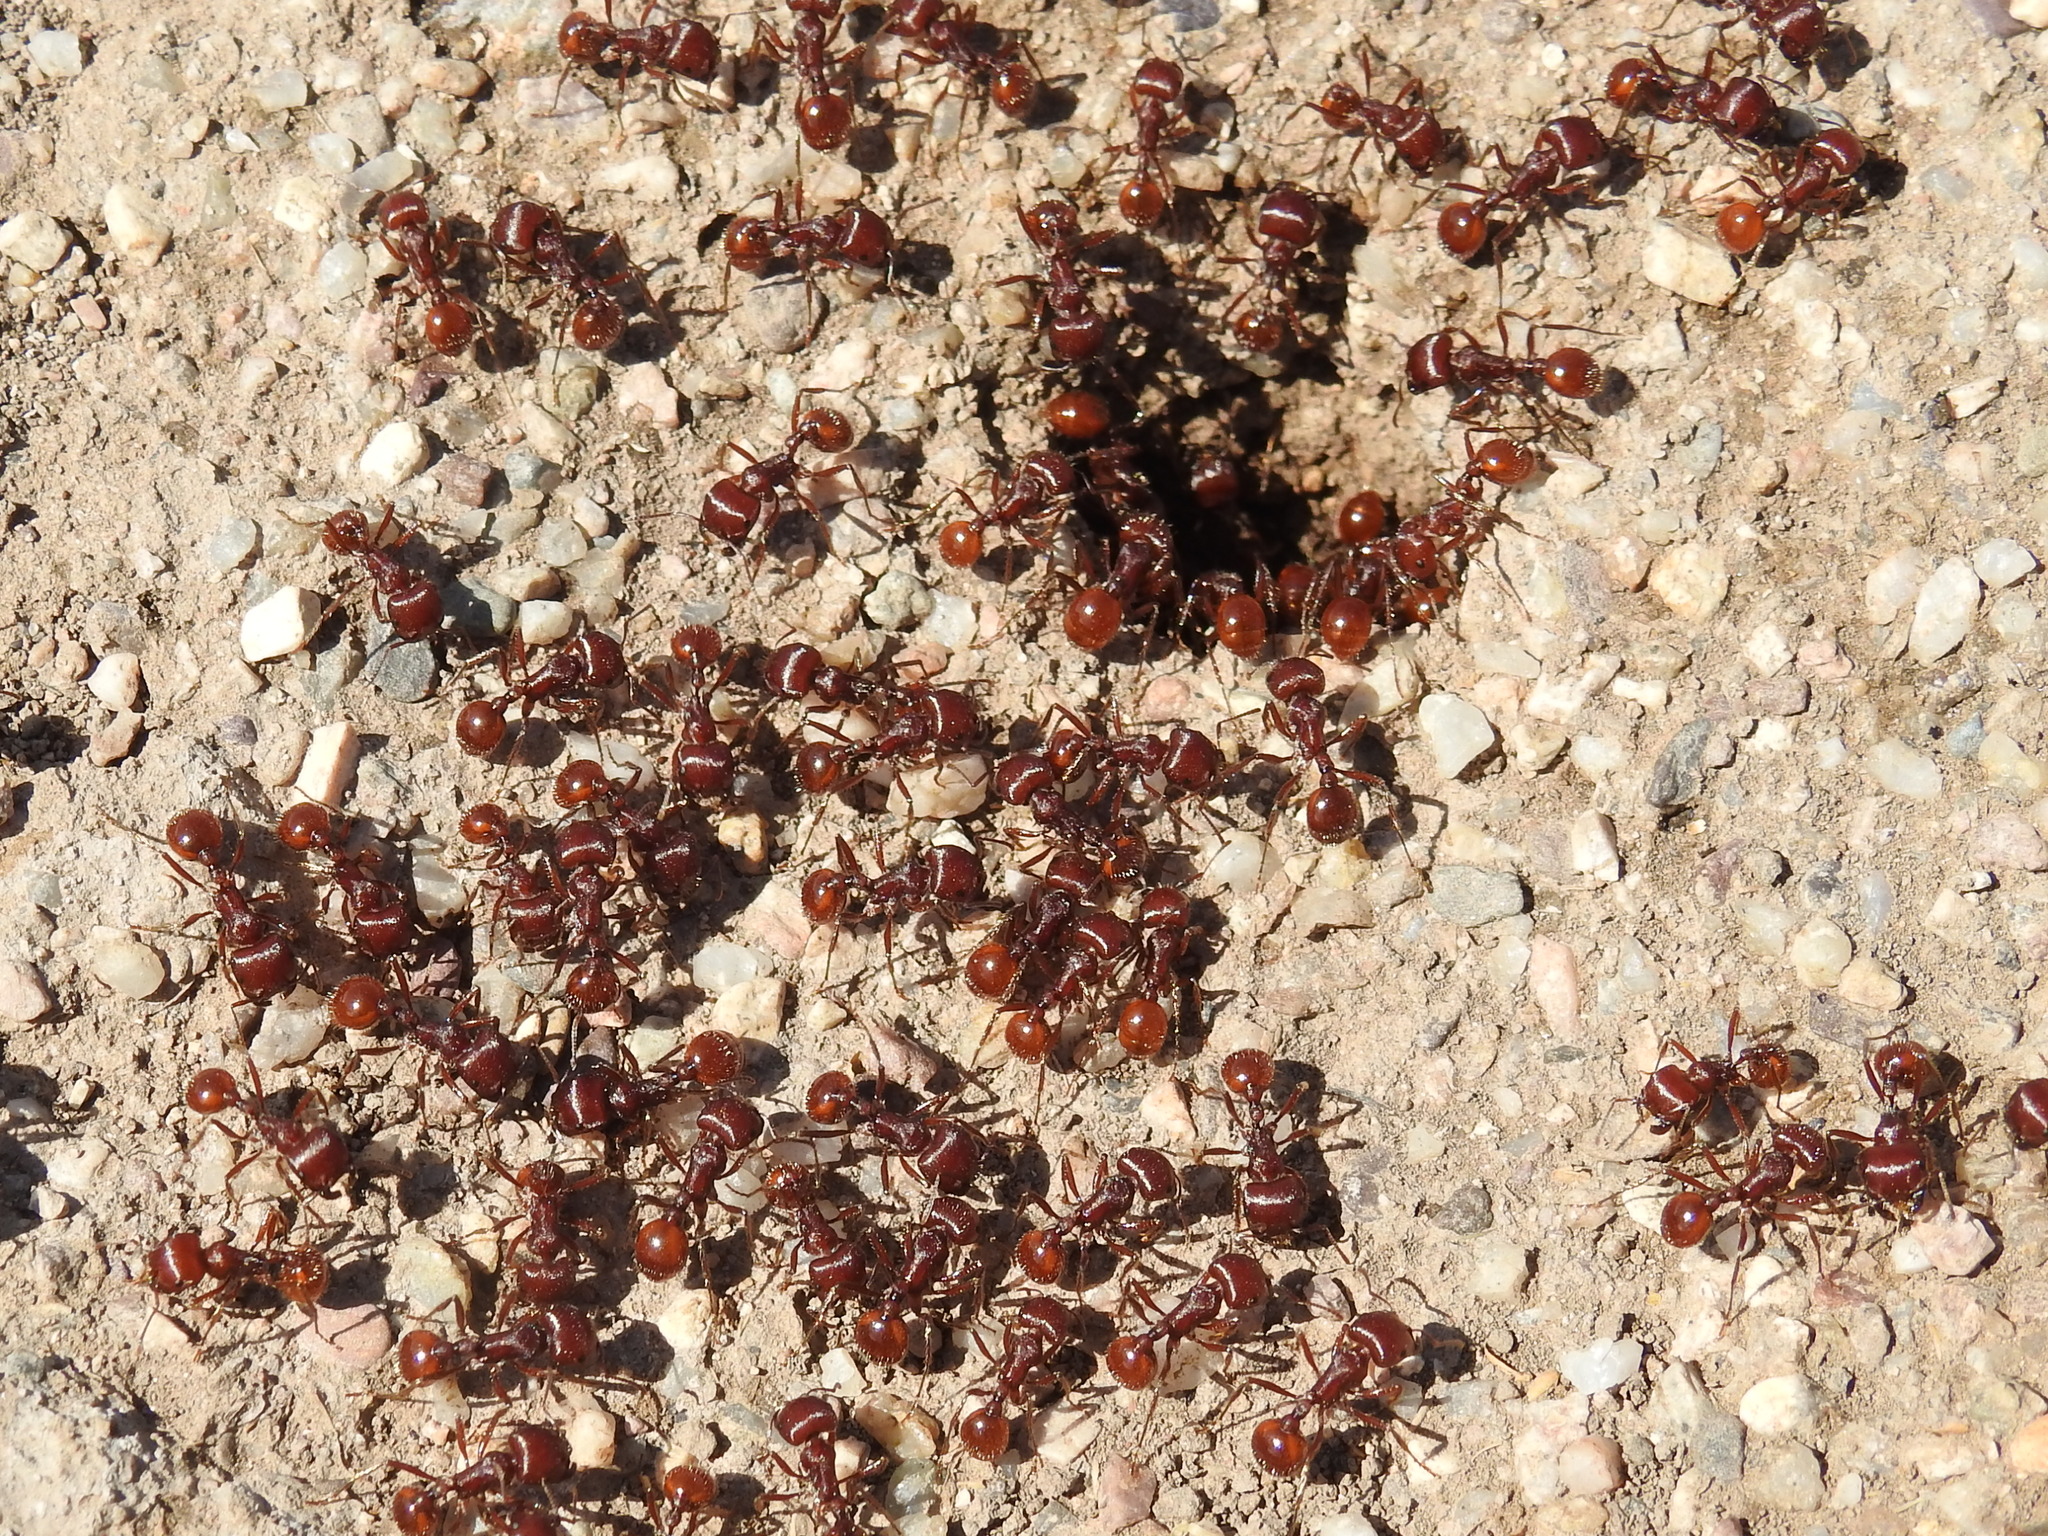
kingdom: Animalia
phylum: Arthropoda
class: Insecta
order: Hymenoptera
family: Formicidae
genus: Pogonomyrmex
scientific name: Pogonomyrmex barbatus
